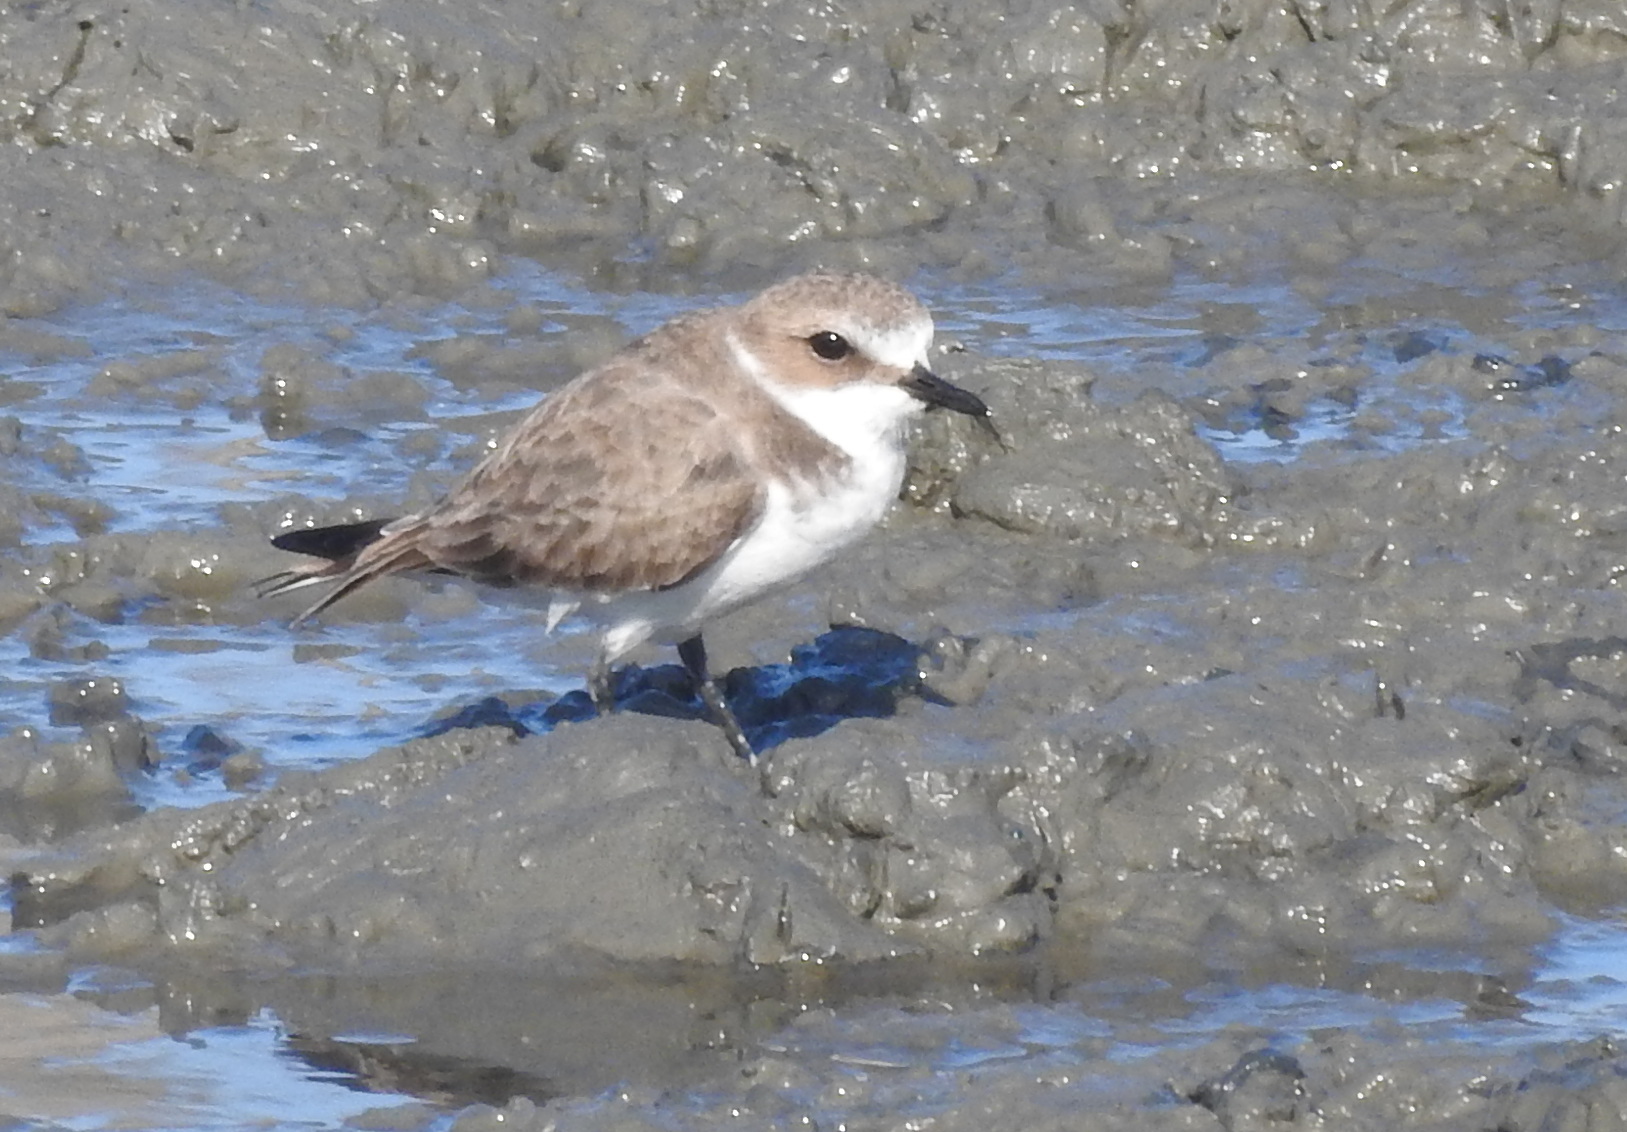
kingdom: Animalia
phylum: Chordata
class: Aves
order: Charadriiformes
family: Charadriidae
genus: Charadrius
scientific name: Charadrius alexandrinus
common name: Kentish plover
